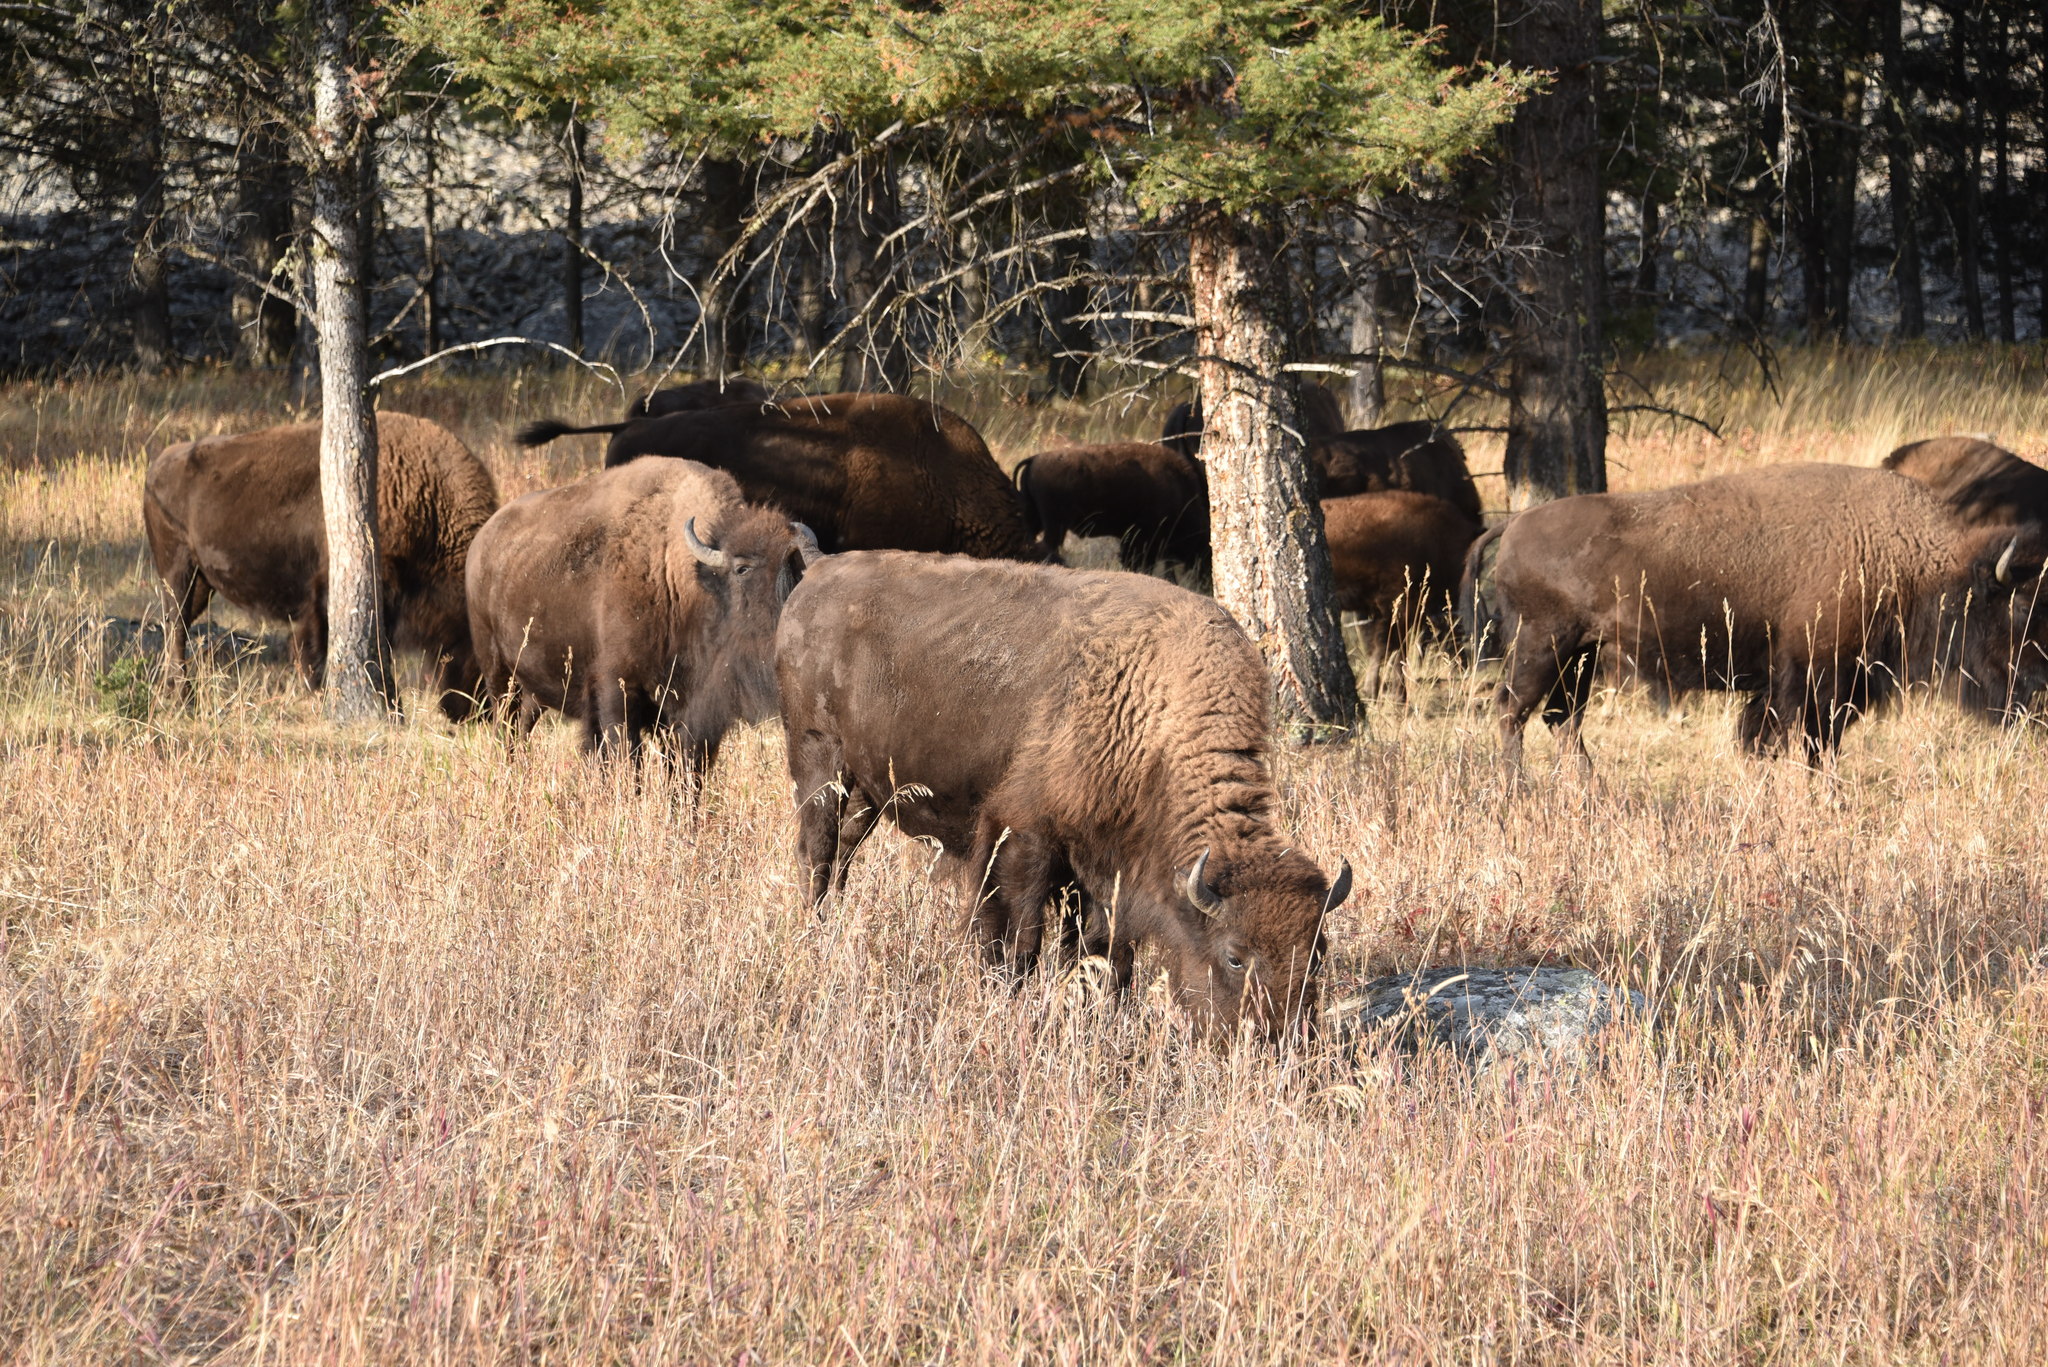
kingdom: Animalia
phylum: Chordata
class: Mammalia
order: Artiodactyla
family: Bovidae
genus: Bison
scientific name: Bison bison
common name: American bison
